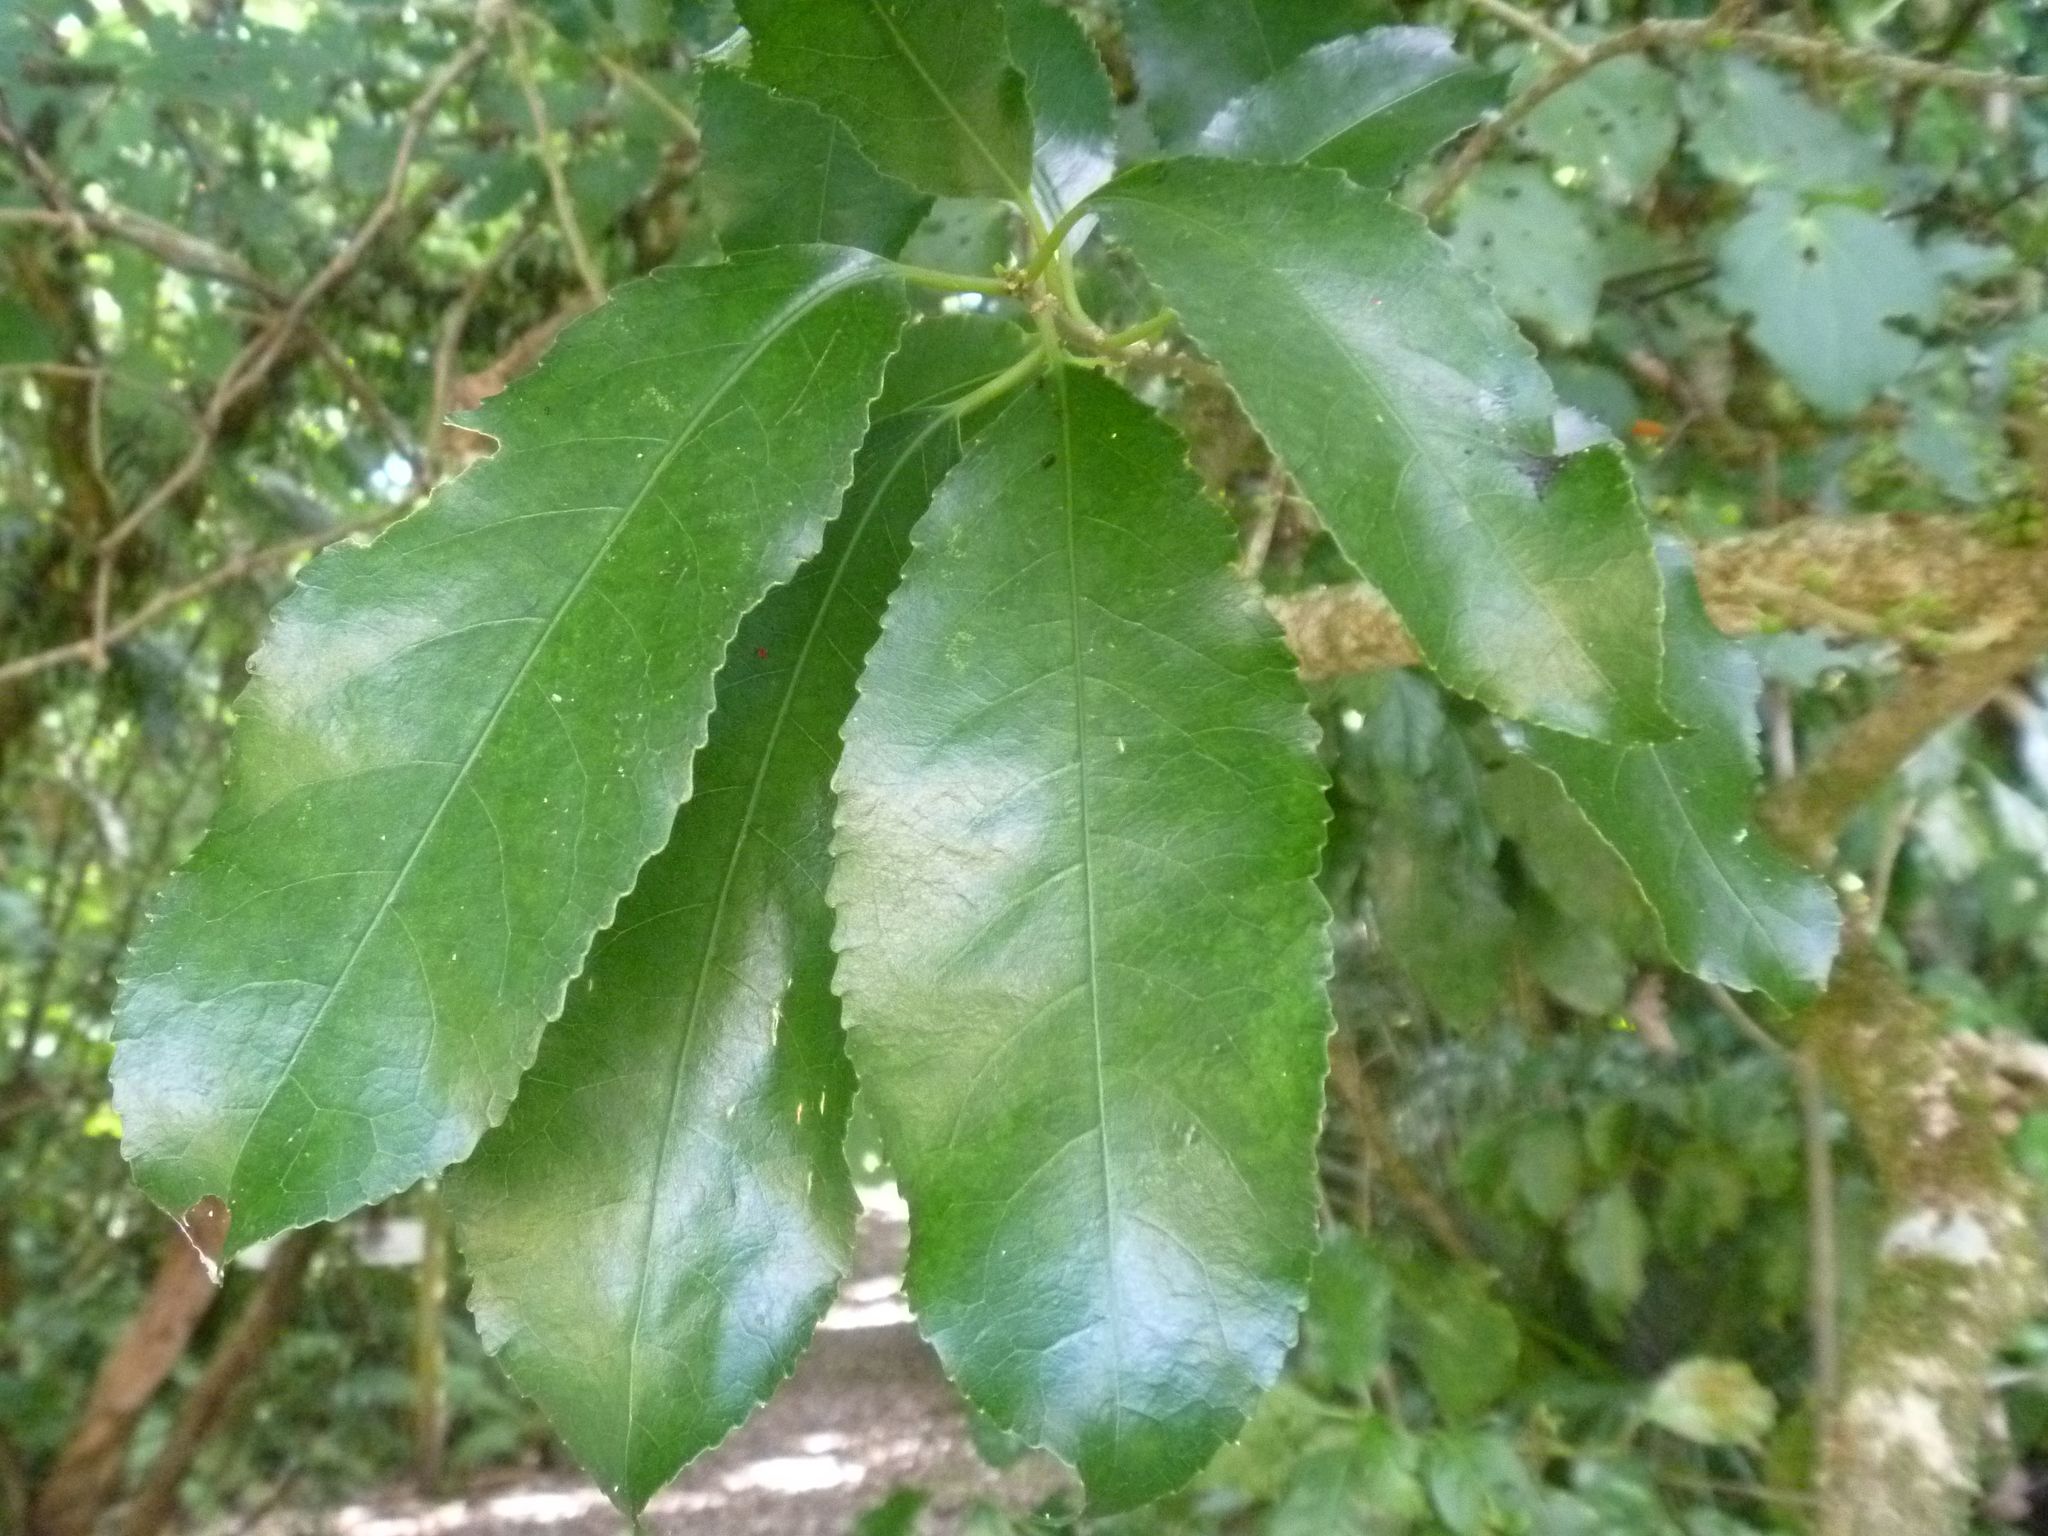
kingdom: Plantae
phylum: Tracheophyta
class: Magnoliopsida
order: Malpighiales
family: Violaceae
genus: Melicytus
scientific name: Melicytus ramiflorus
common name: Mahoe
